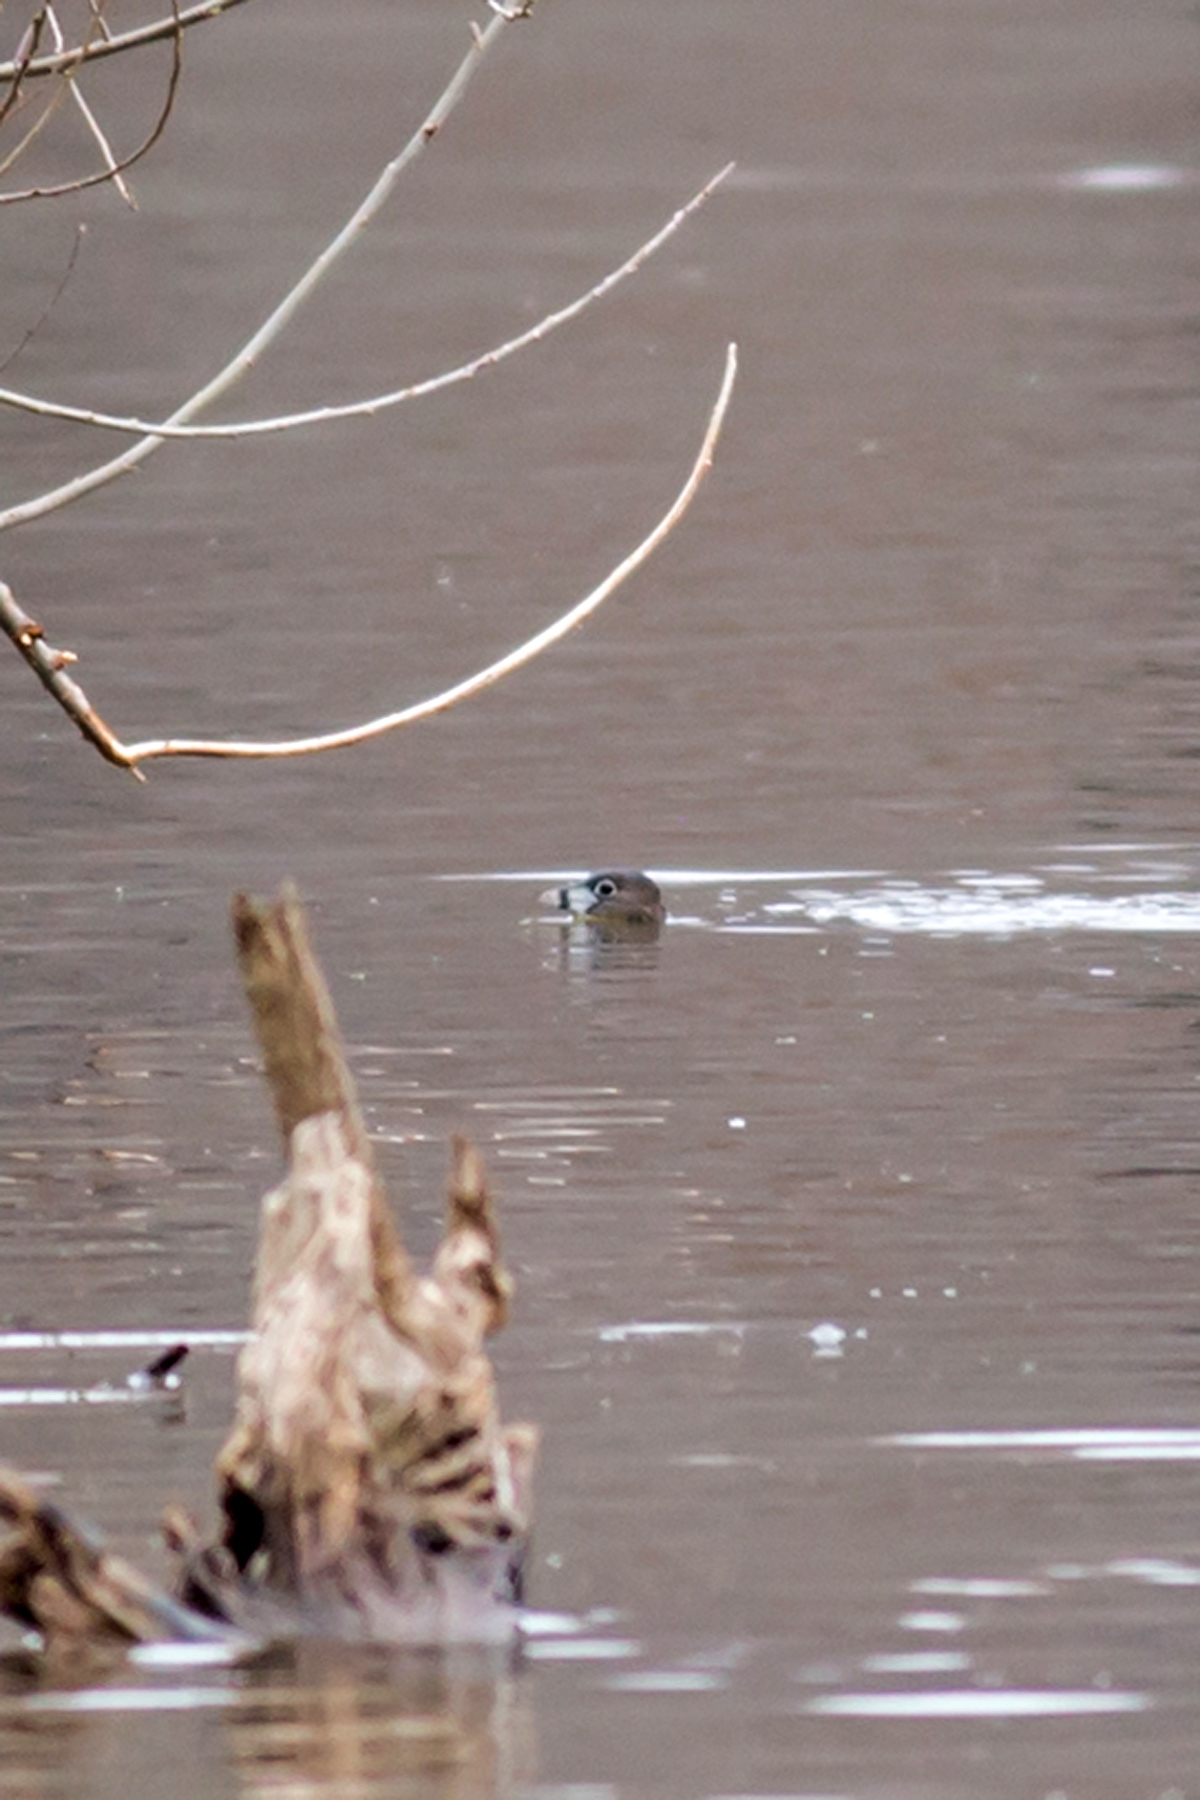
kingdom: Animalia
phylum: Chordata
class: Aves
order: Podicipediformes
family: Podicipedidae
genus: Podilymbus
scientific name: Podilymbus podiceps
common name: Pied-billed grebe
